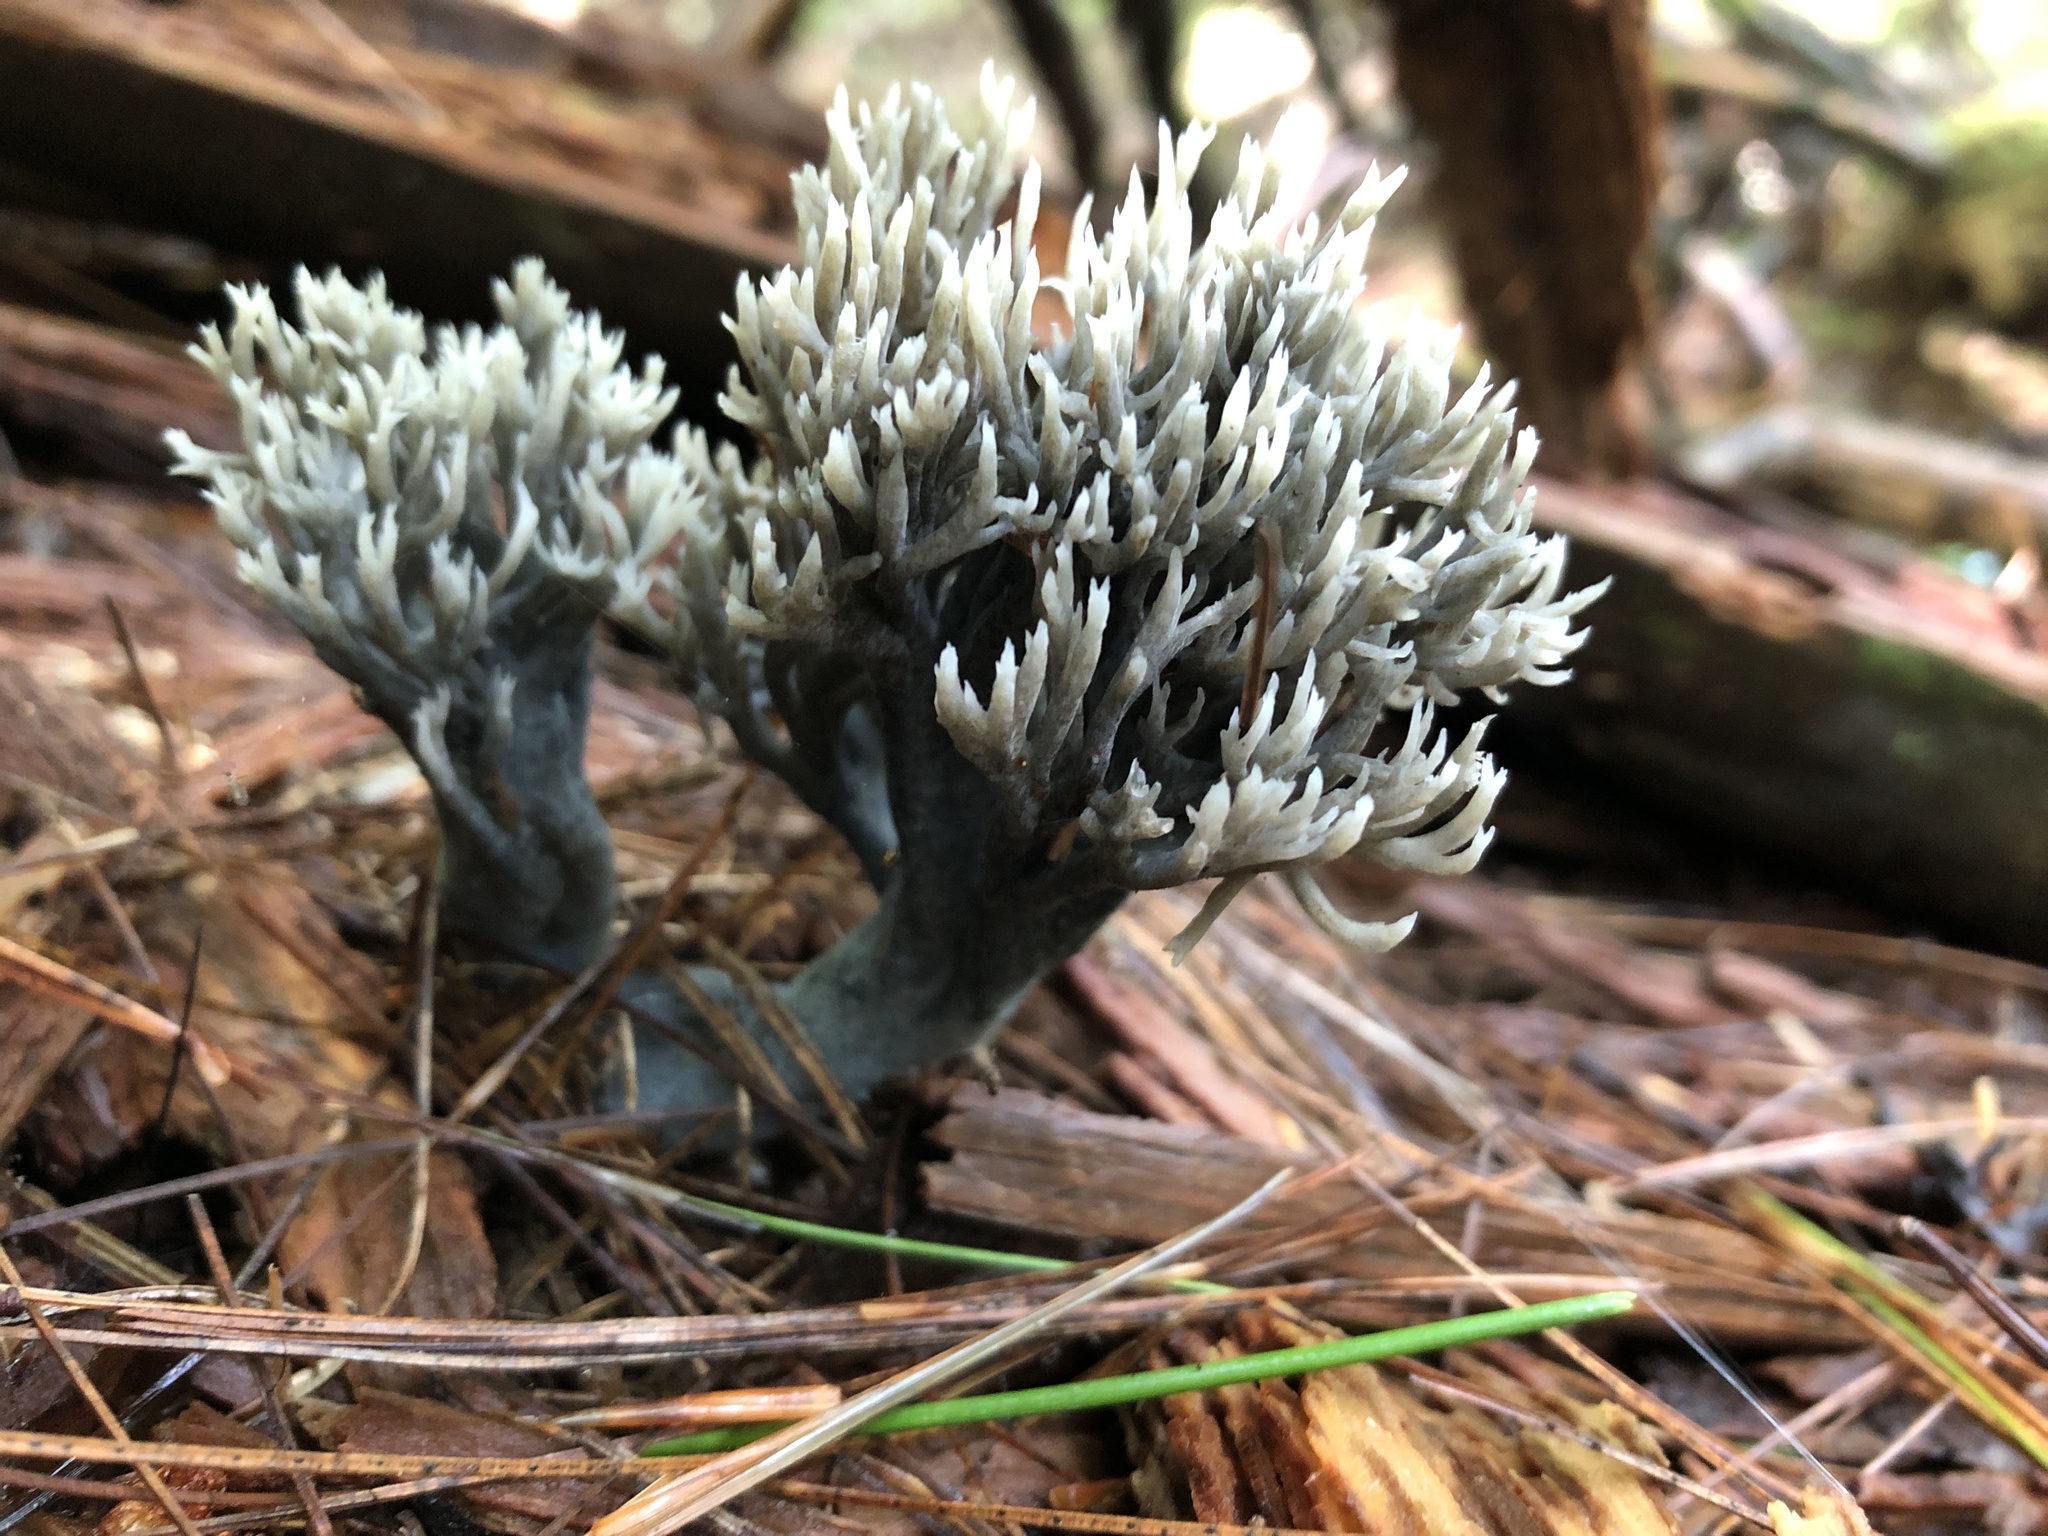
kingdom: Fungi
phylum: Ascomycota
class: Sordariomycetes
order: Sordariales
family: Helminthosphaeriaceae
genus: Helminthosphaeria
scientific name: Helminthosphaeria clavariarum
